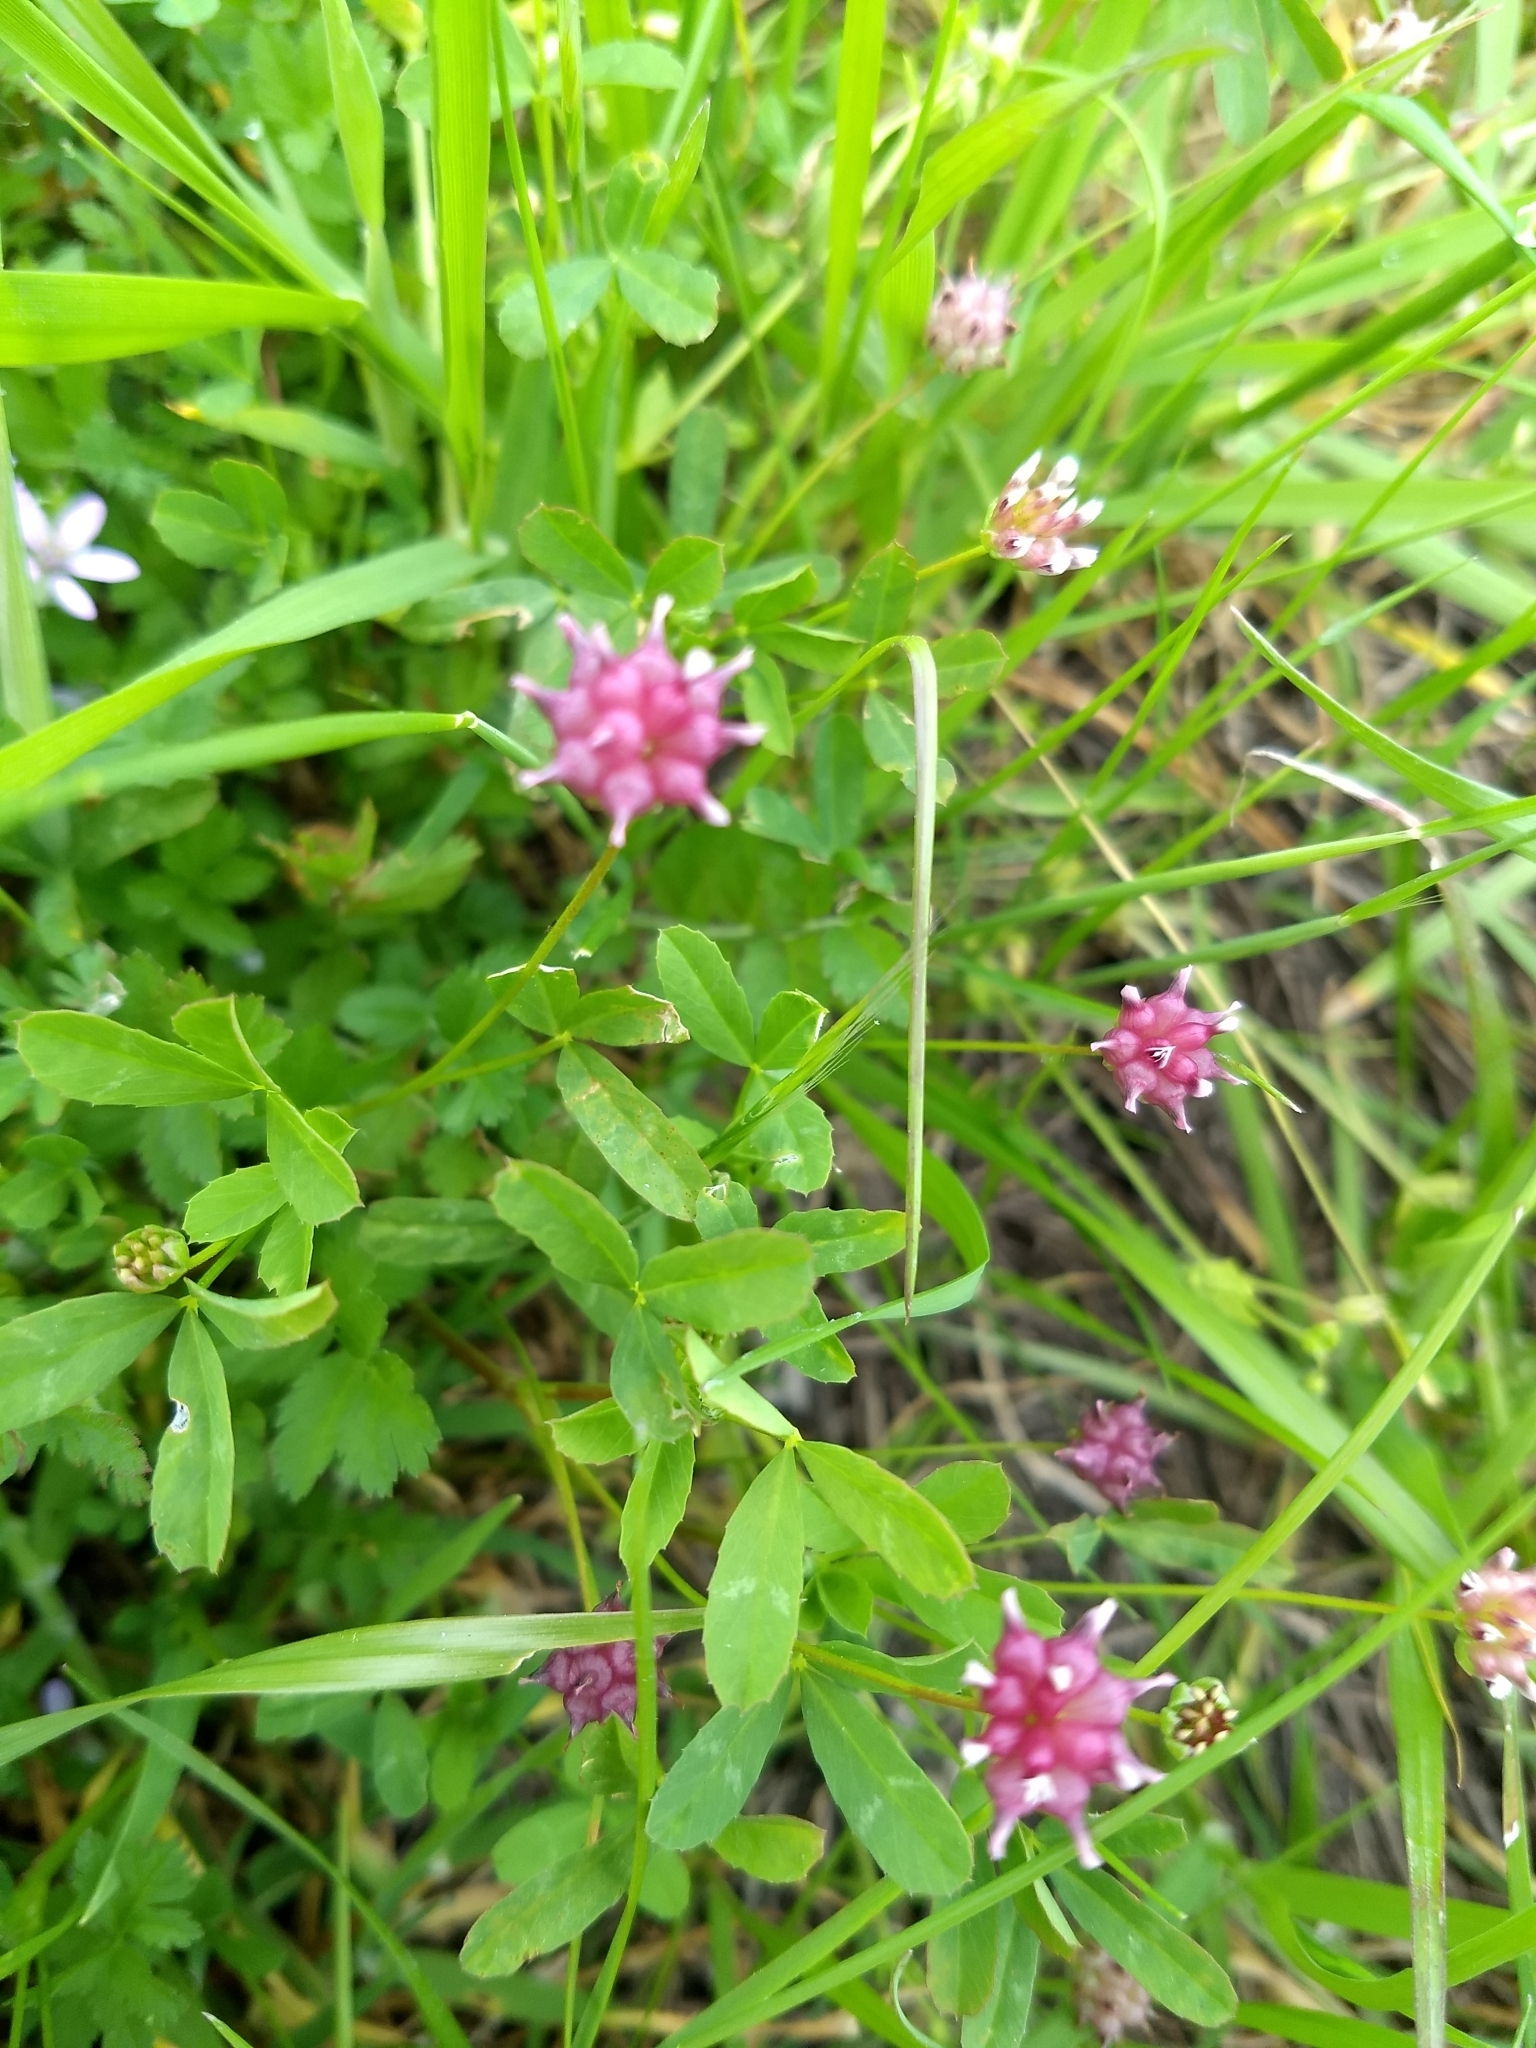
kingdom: Plantae
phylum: Tracheophyta
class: Magnoliopsida
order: Fabales
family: Fabaceae
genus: Trifolium
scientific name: Trifolium depauperatum
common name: Poverty clover
